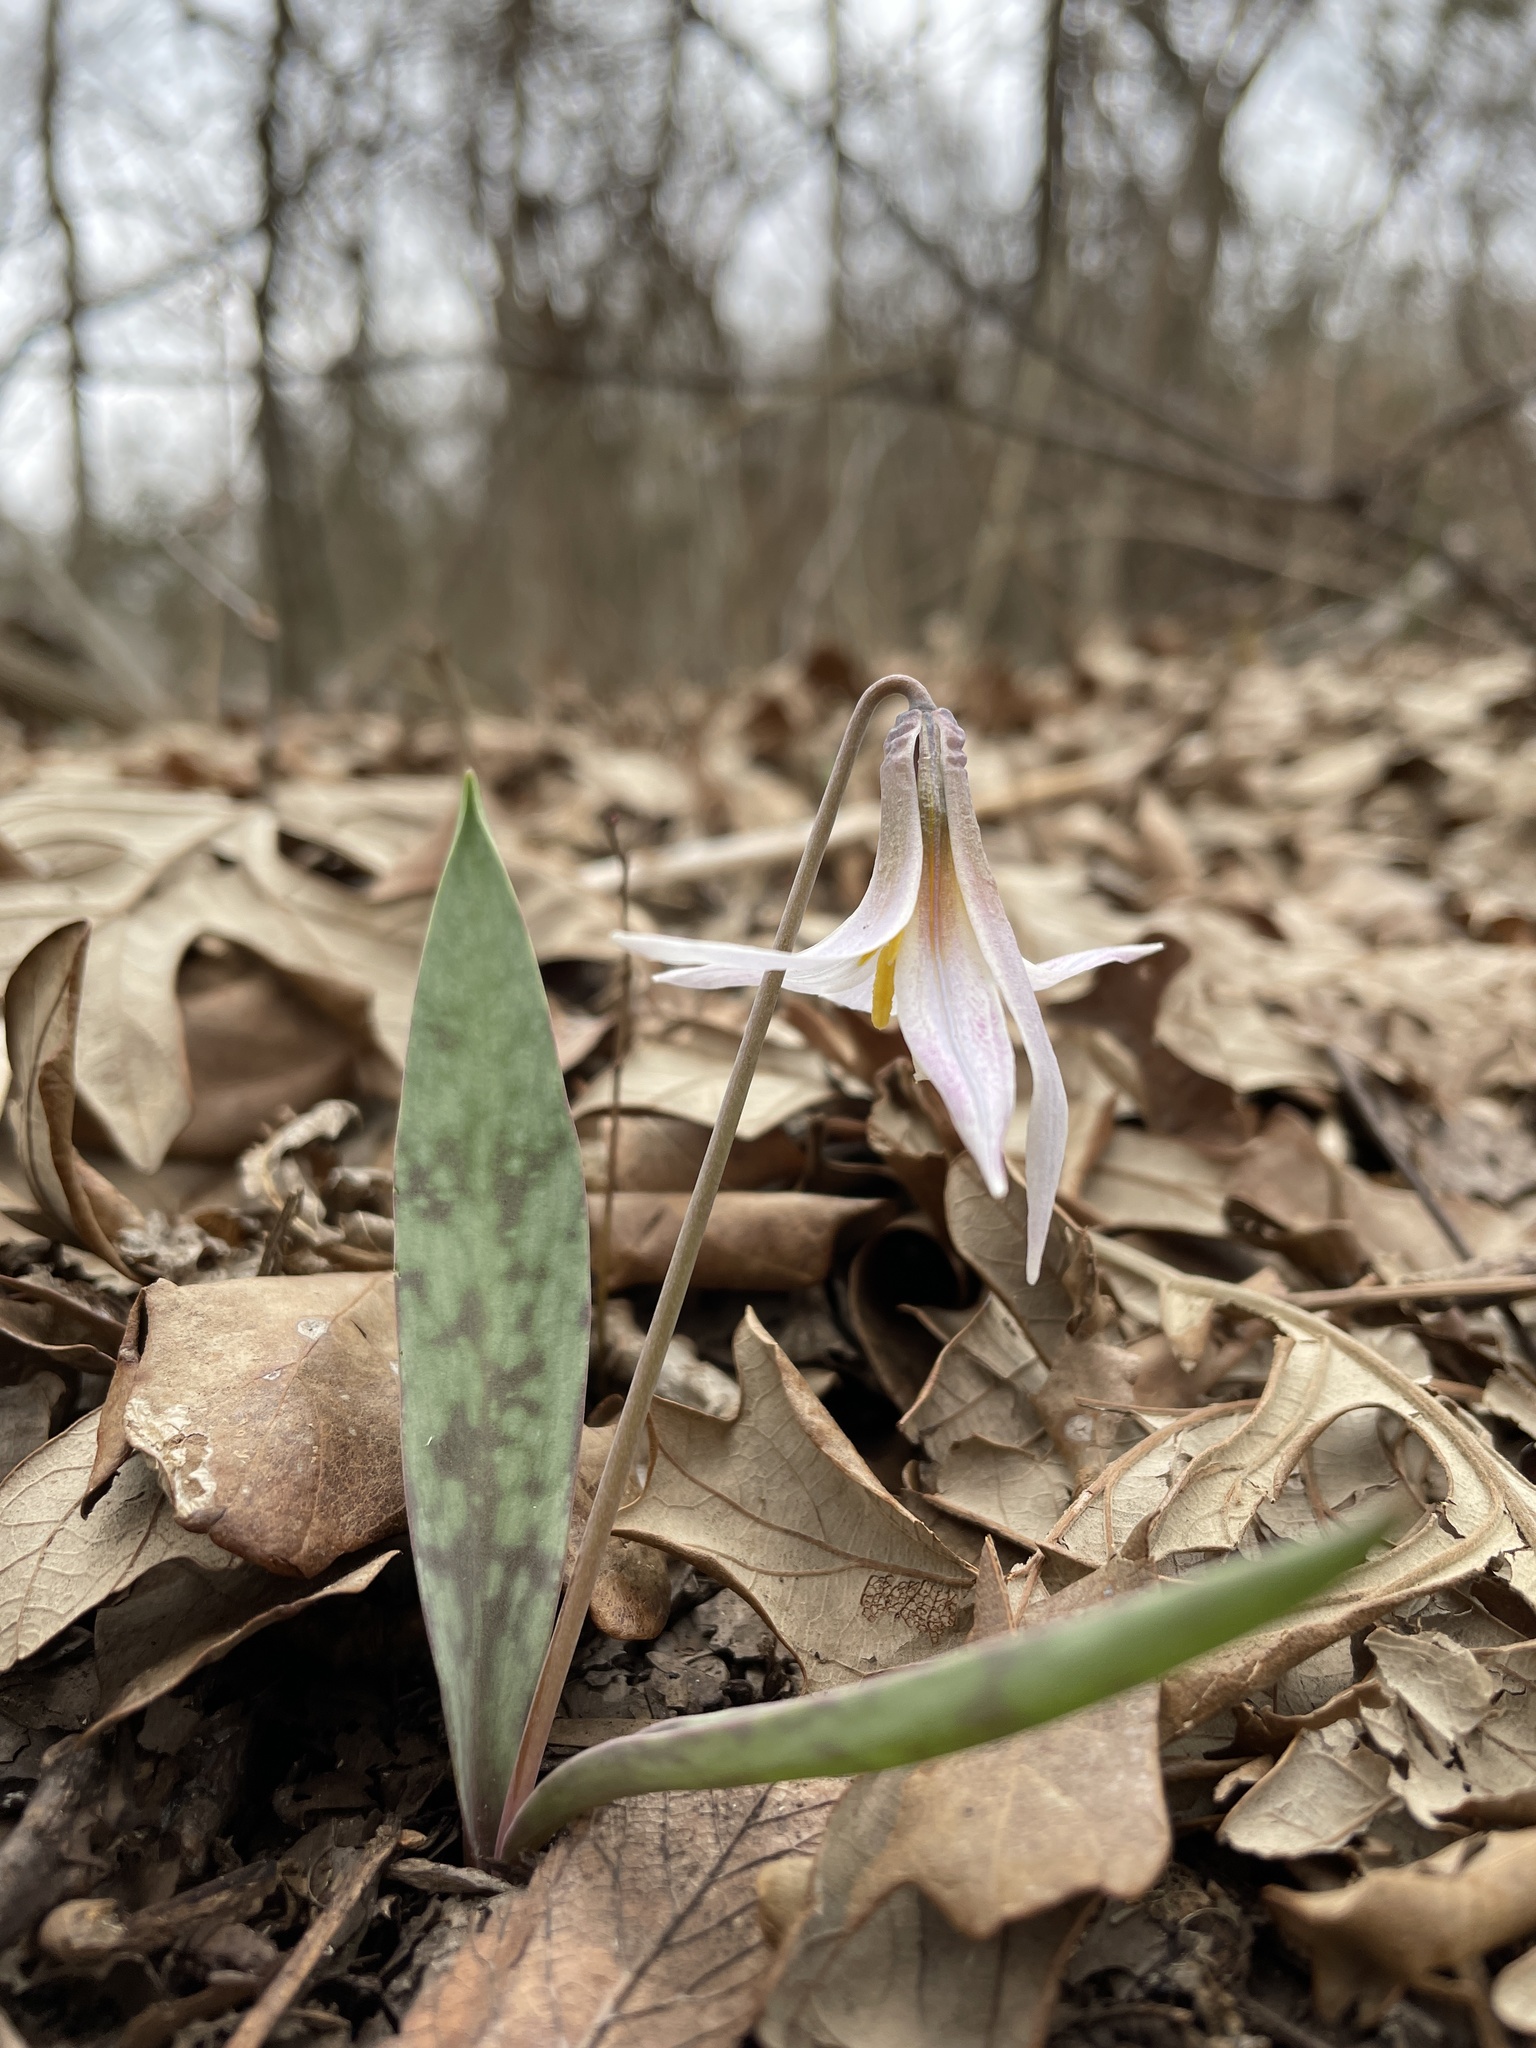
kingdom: Plantae
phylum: Tracheophyta
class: Liliopsida
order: Liliales
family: Liliaceae
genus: Erythronium
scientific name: Erythronium albidum
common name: White trout-lily
